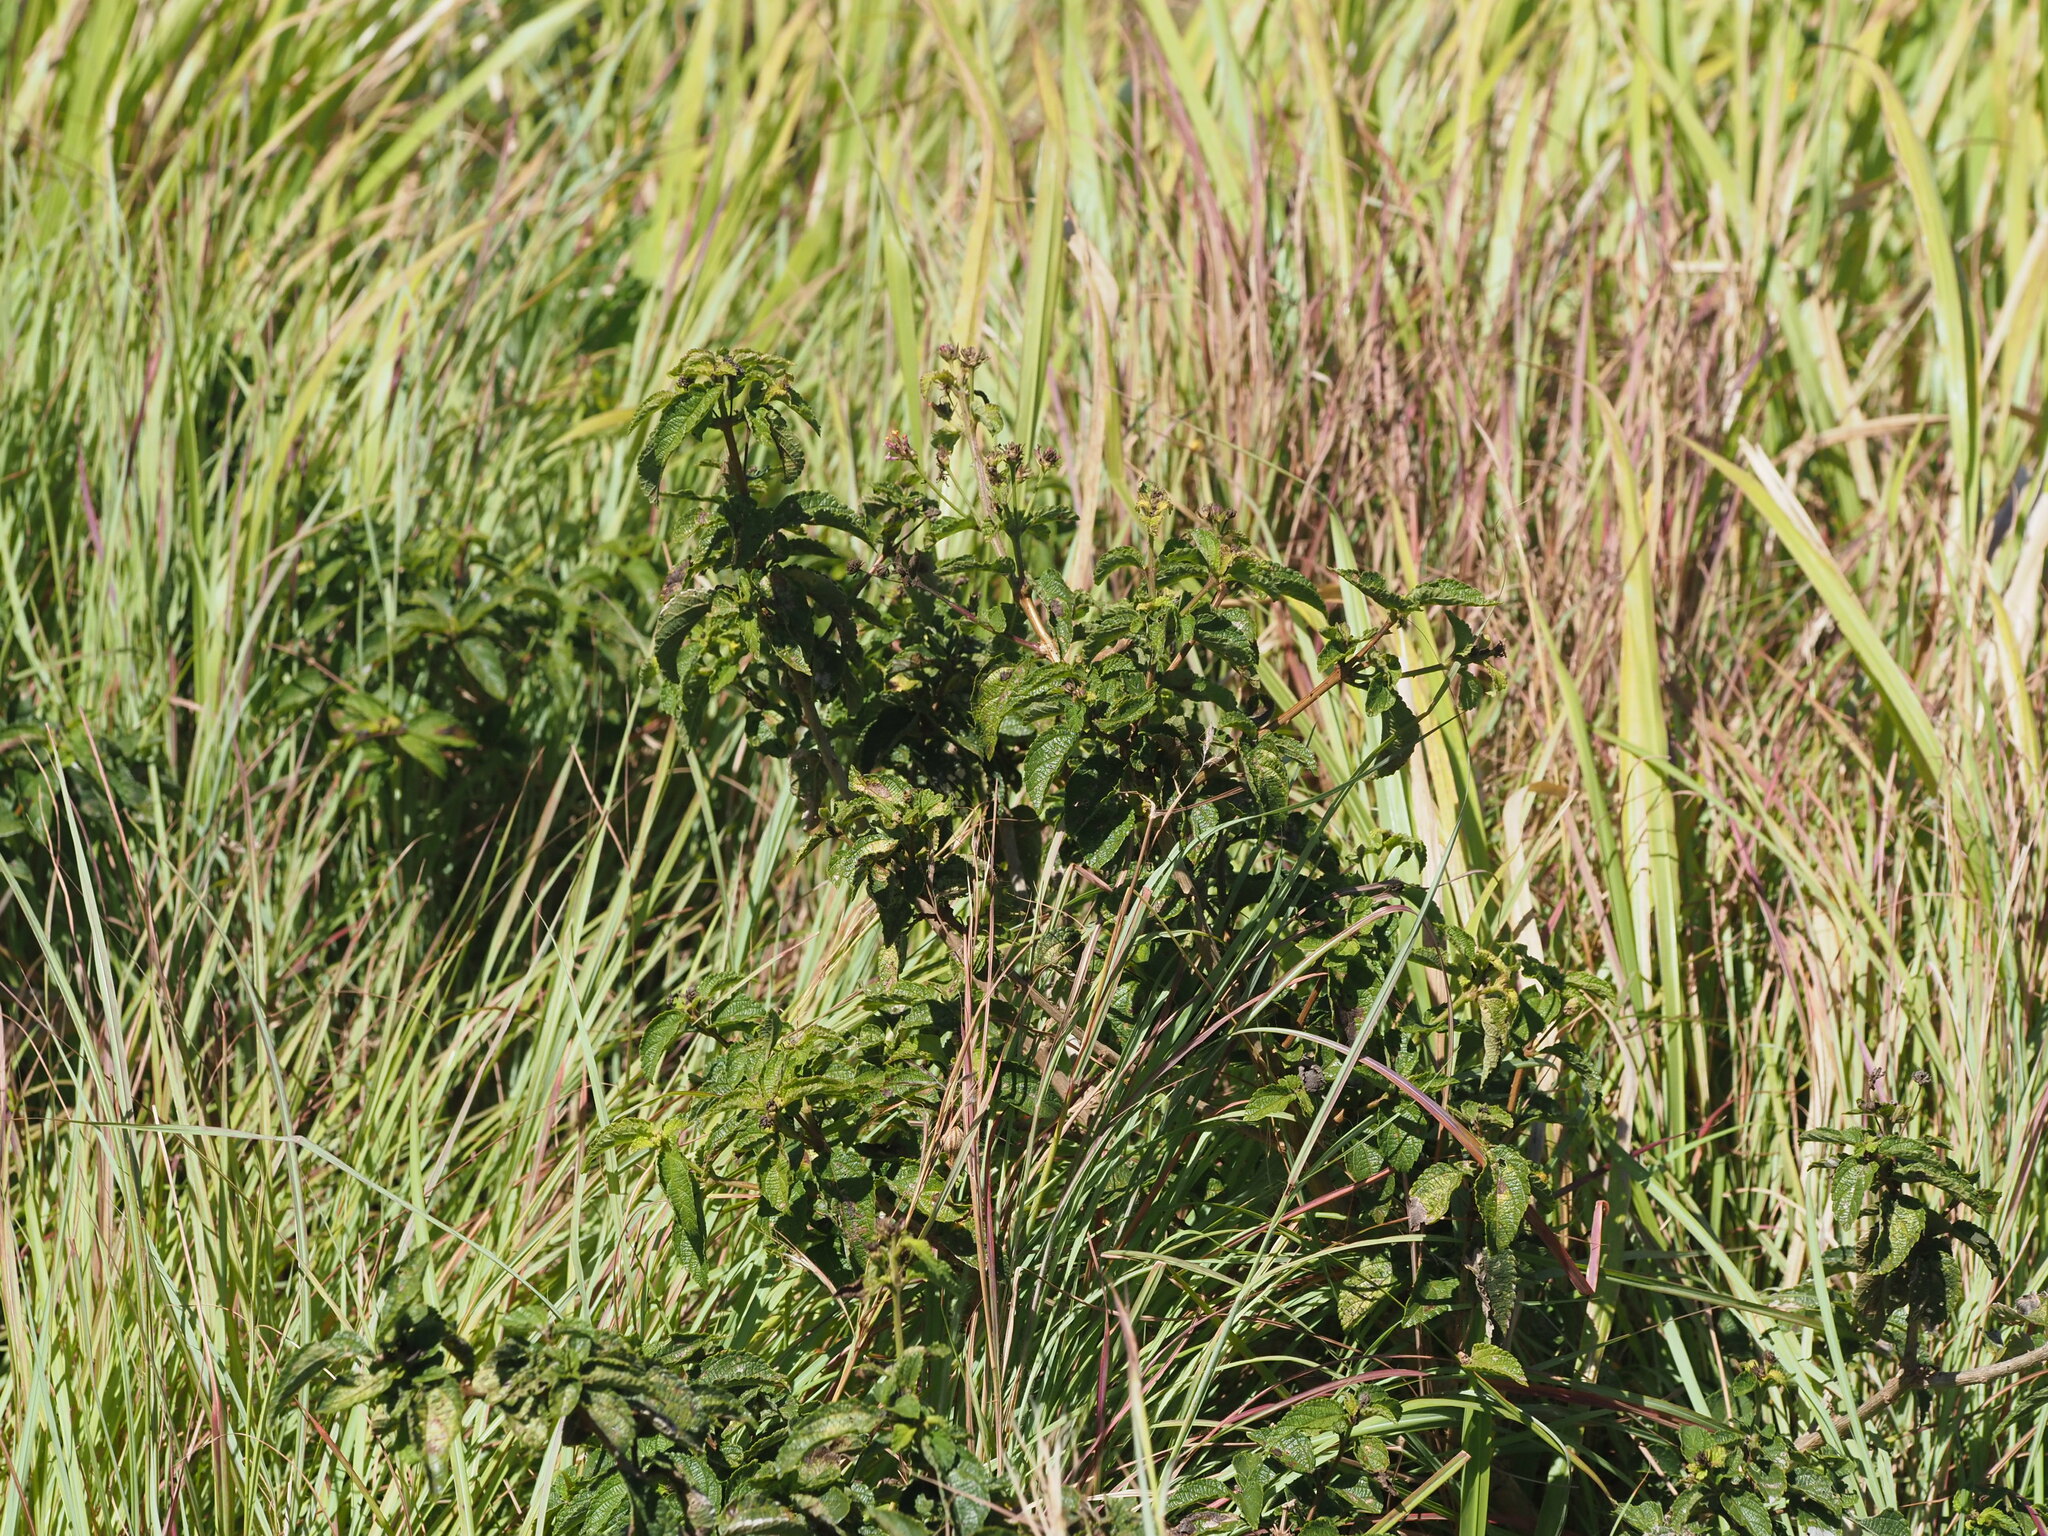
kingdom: Plantae
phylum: Tracheophyta
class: Magnoliopsida
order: Lamiales
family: Verbenaceae
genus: Lantana
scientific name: Lantana camara
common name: Lantana
